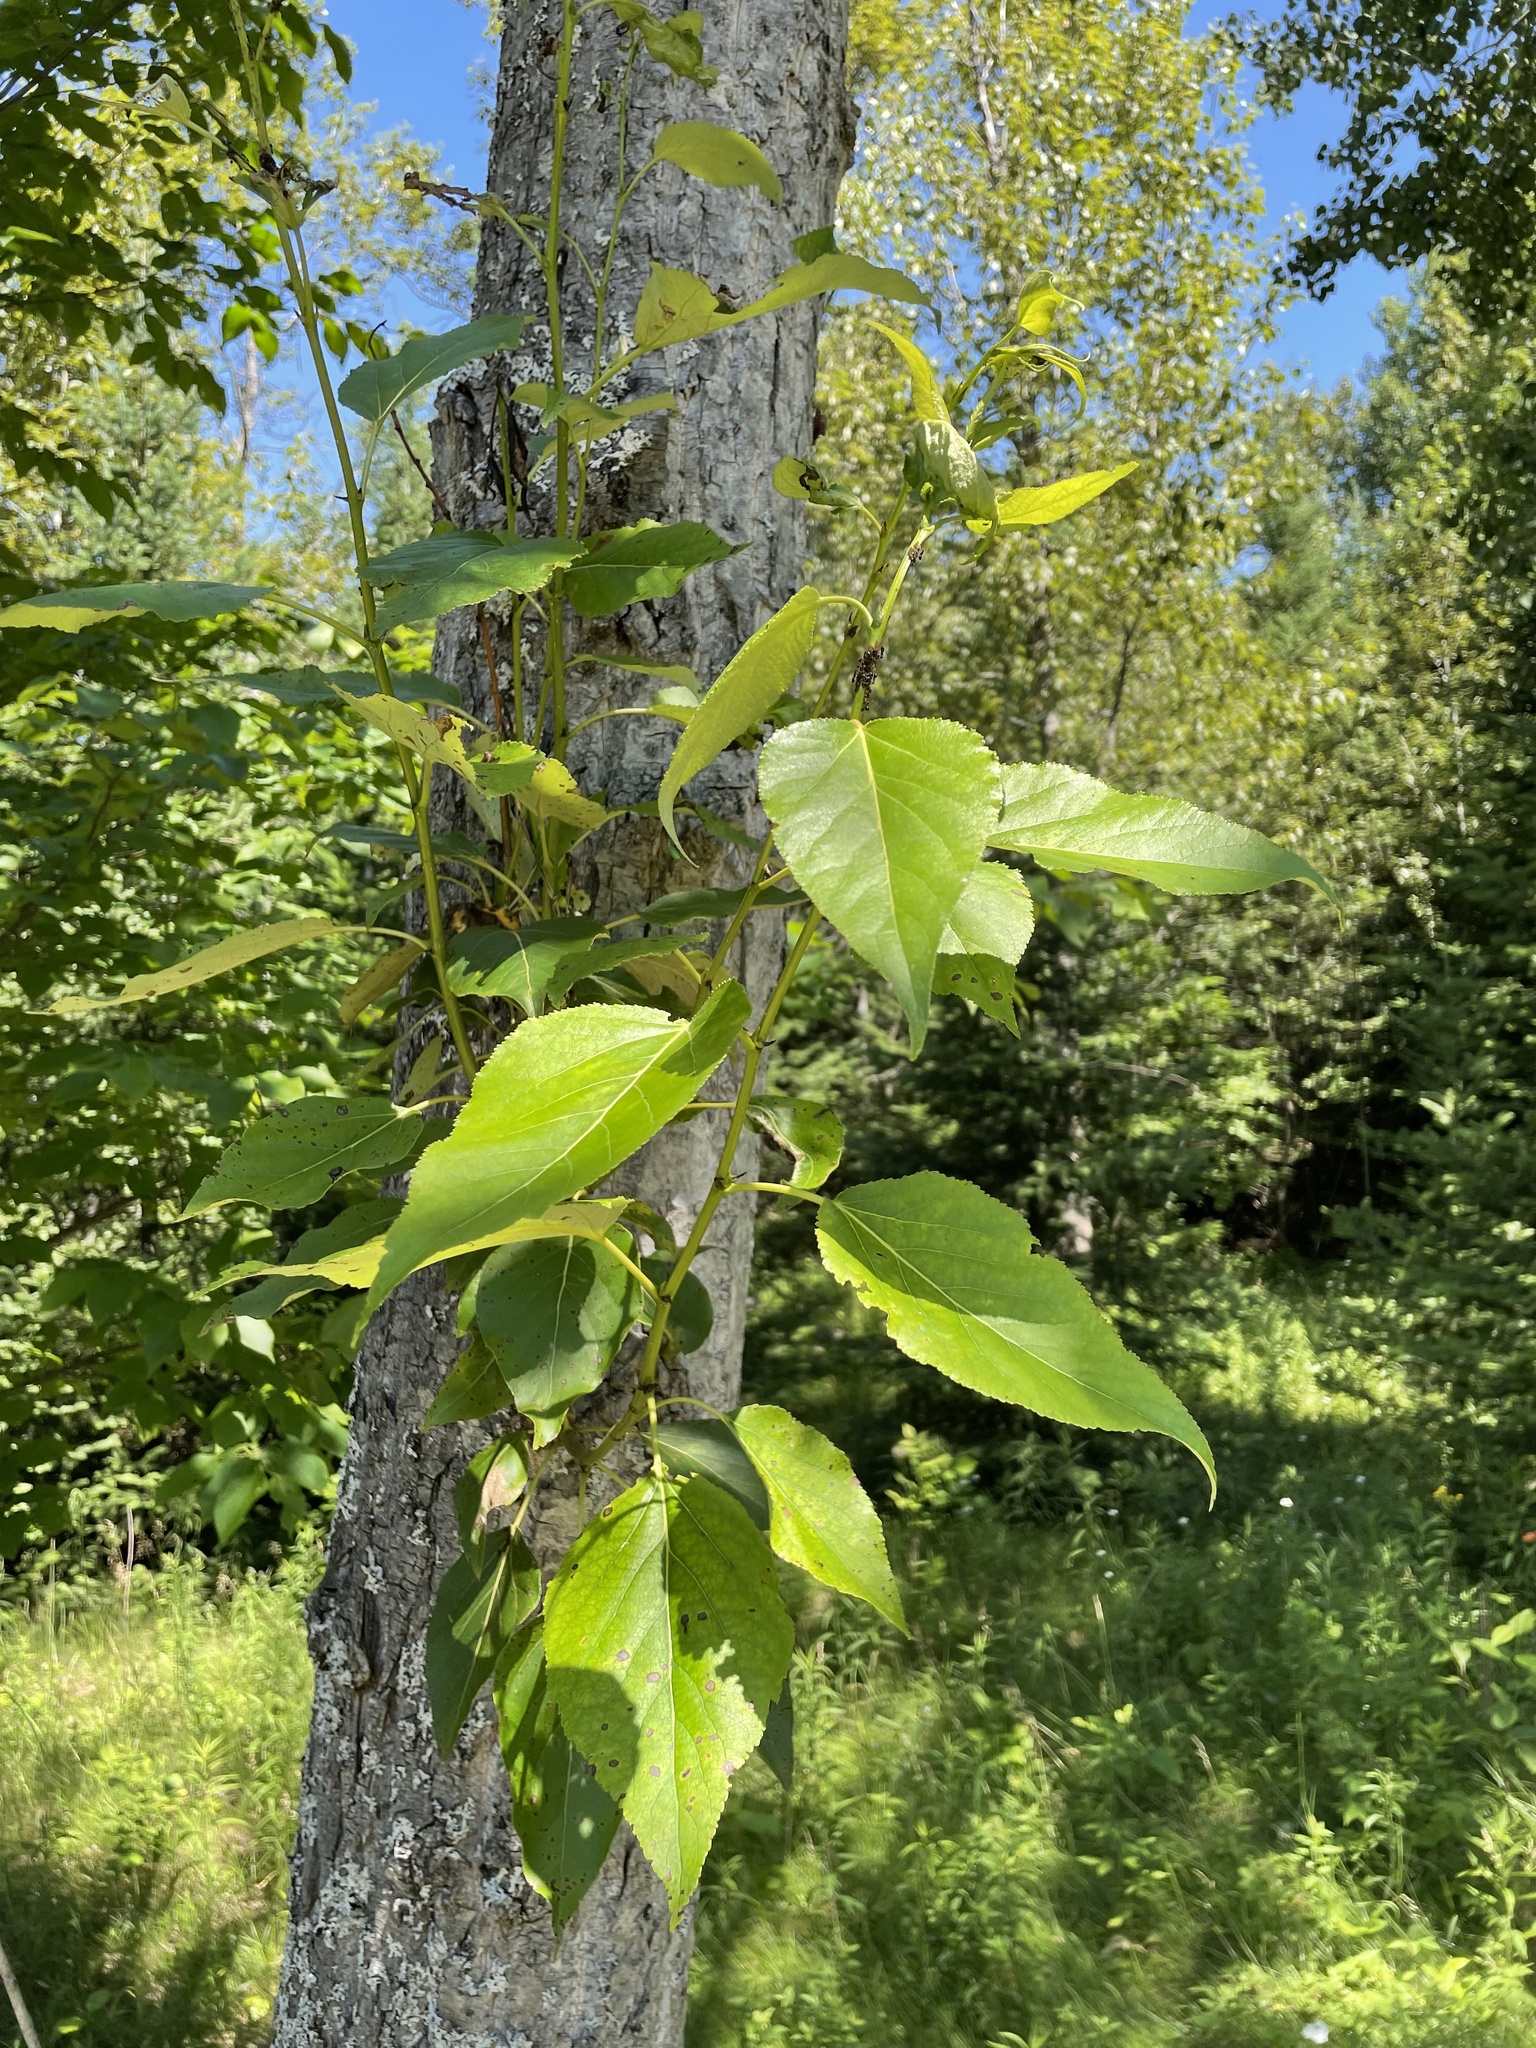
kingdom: Plantae
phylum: Tracheophyta
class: Magnoliopsida
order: Malpighiales
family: Salicaceae
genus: Populus
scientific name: Populus balsamifera
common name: Balsam poplar
